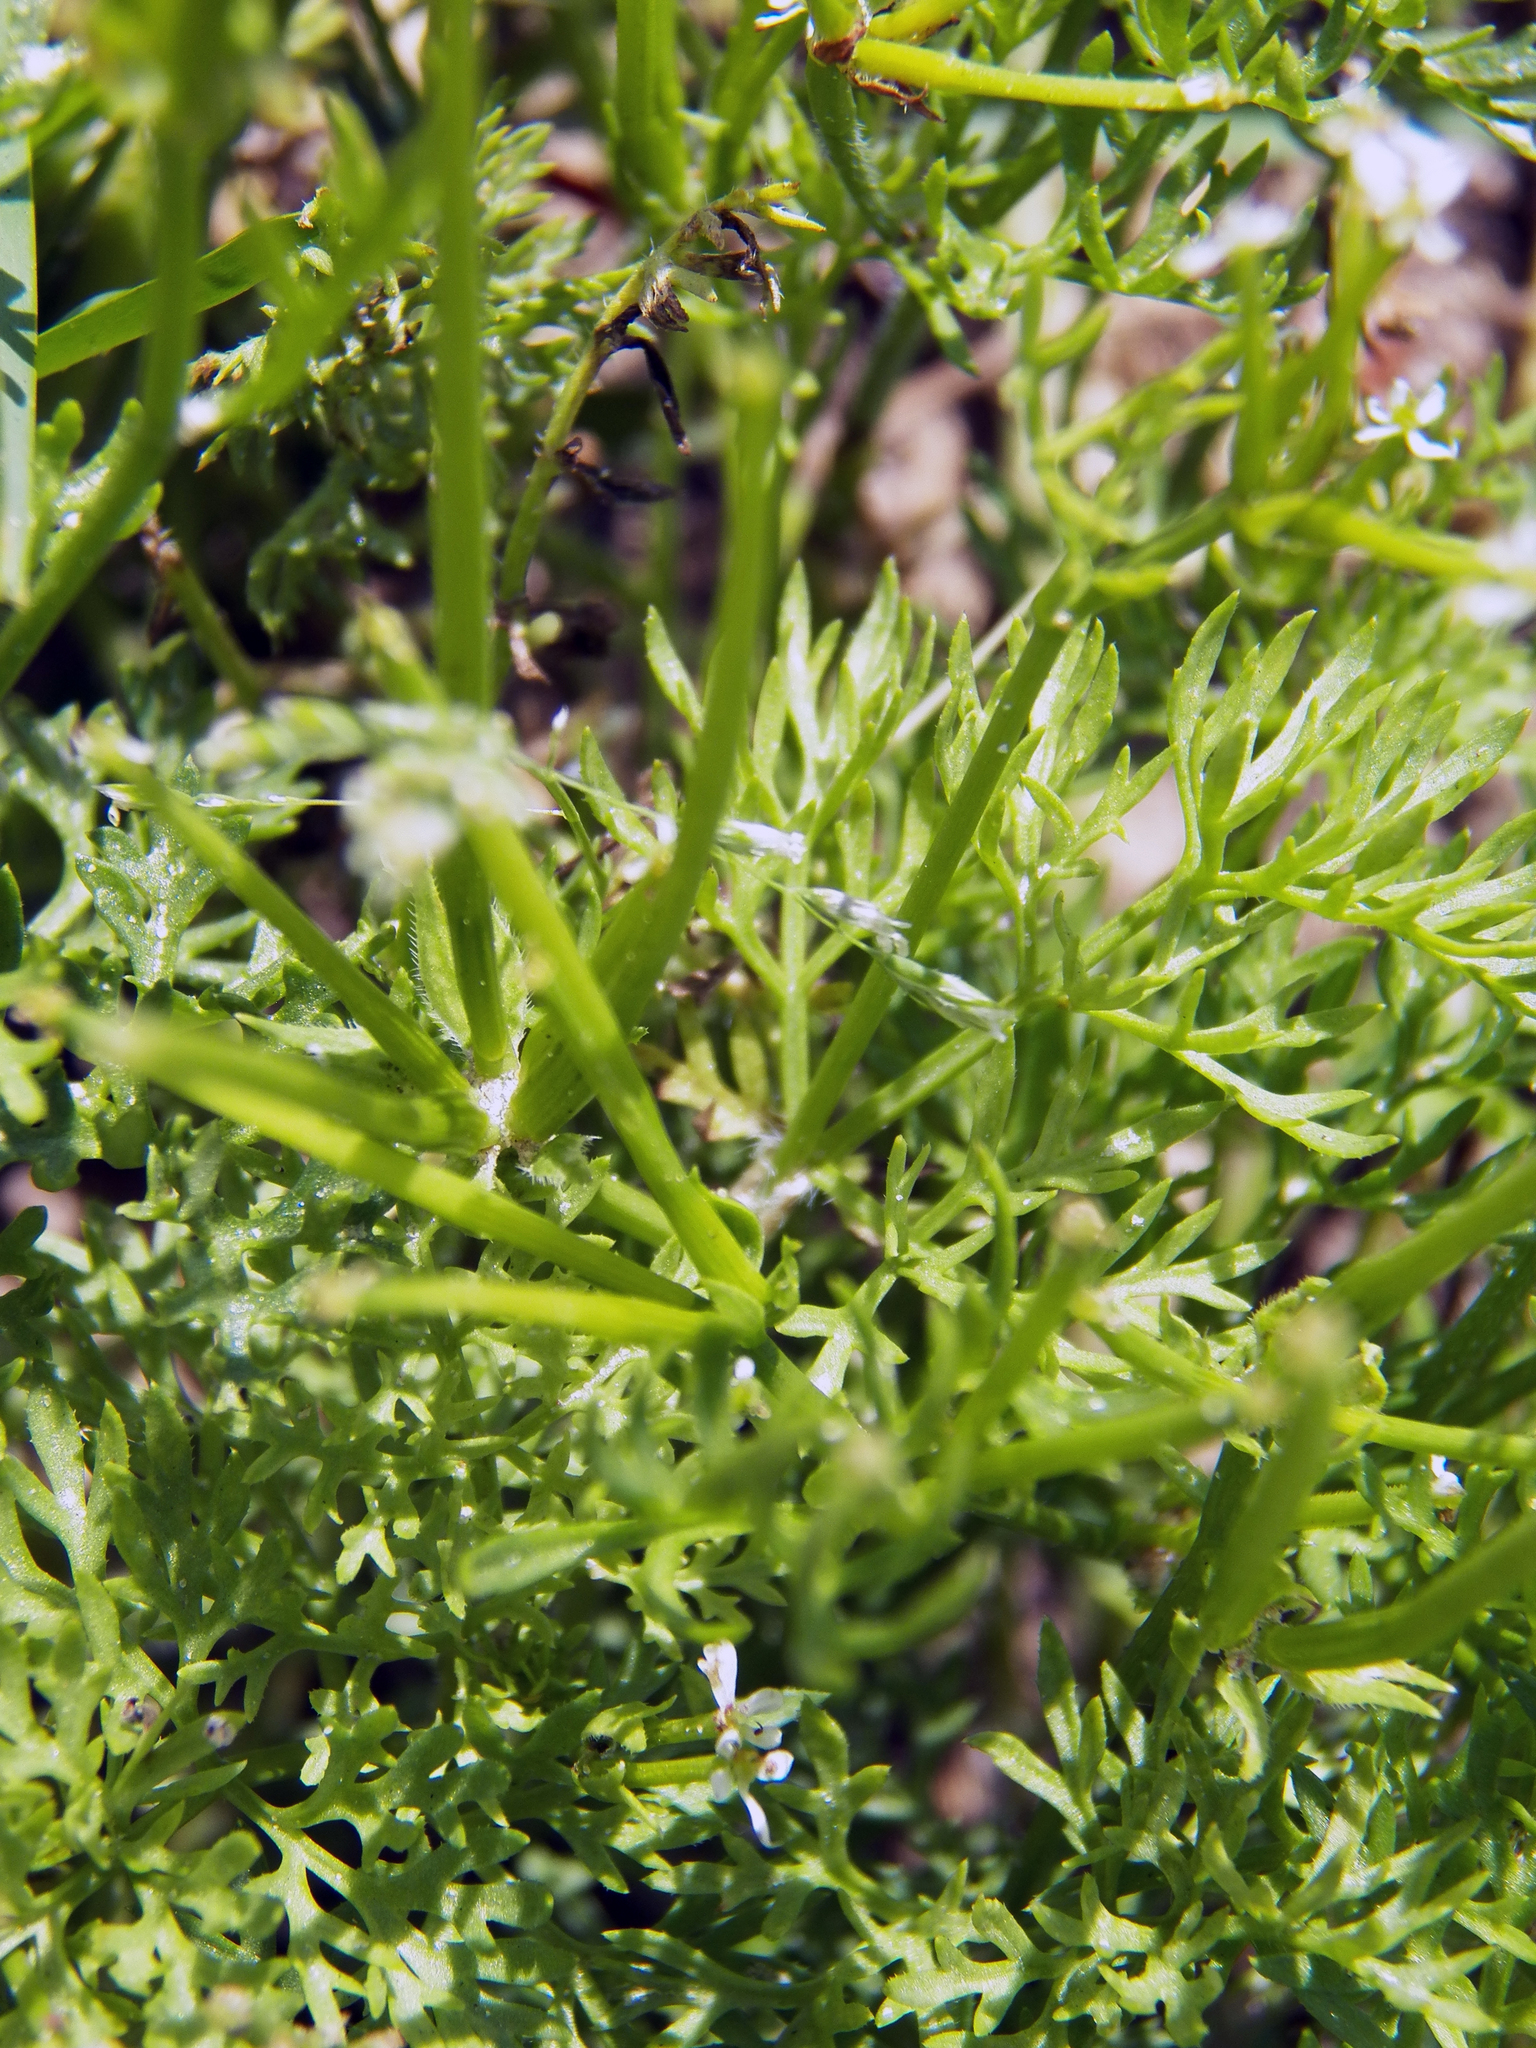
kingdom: Plantae
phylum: Tracheophyta
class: Magnoliopsida
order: Apiales
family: Apiaceae
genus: Scandix
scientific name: Scandix pecten-veneris
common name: Shepherd's-needle
